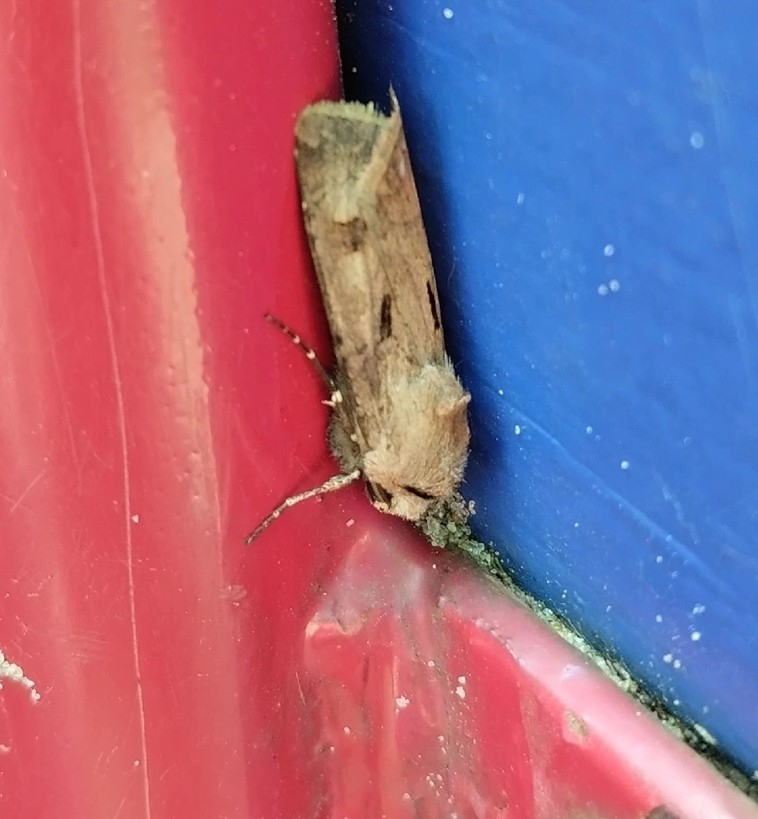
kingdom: Animalia
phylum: Arthropoda
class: Insecta
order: Lepidoptera
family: Noctuidae
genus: Agrotis
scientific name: Agrotis exclamationis
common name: Heart and dart
